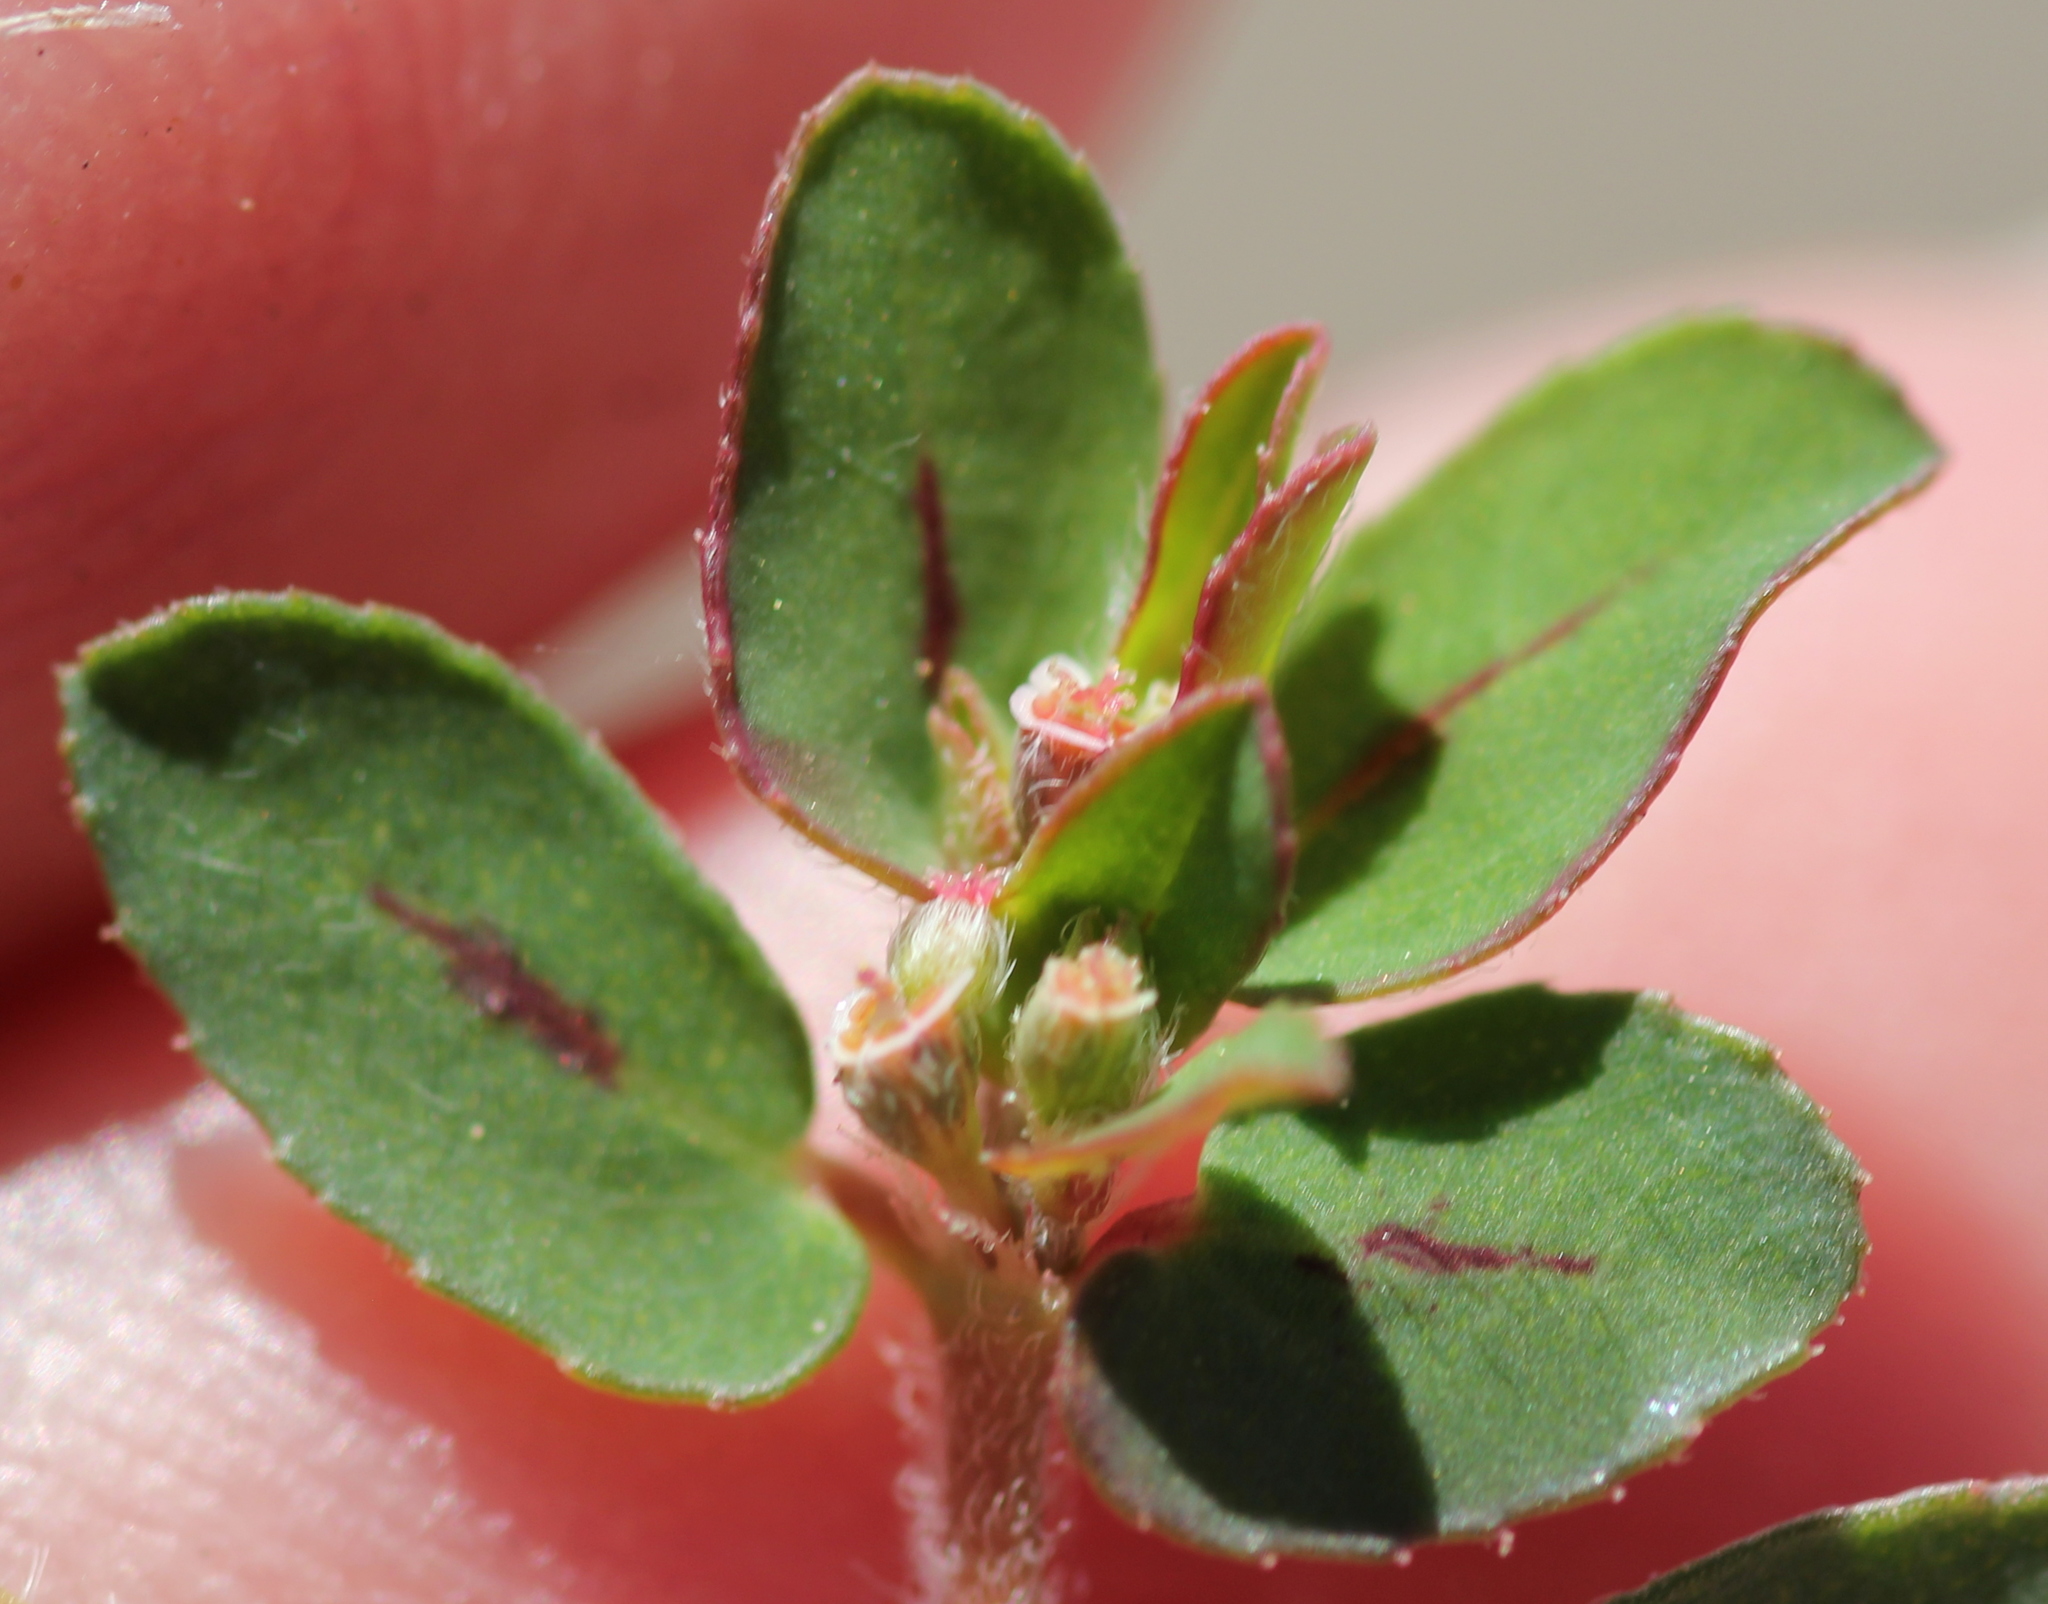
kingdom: Plantae
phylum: Tracheophyta
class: Magnoliopsida
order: Malpighiales
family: Euphorbiaceae
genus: Euphorbia
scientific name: Euphorbia maculata
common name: Spotted spurge
